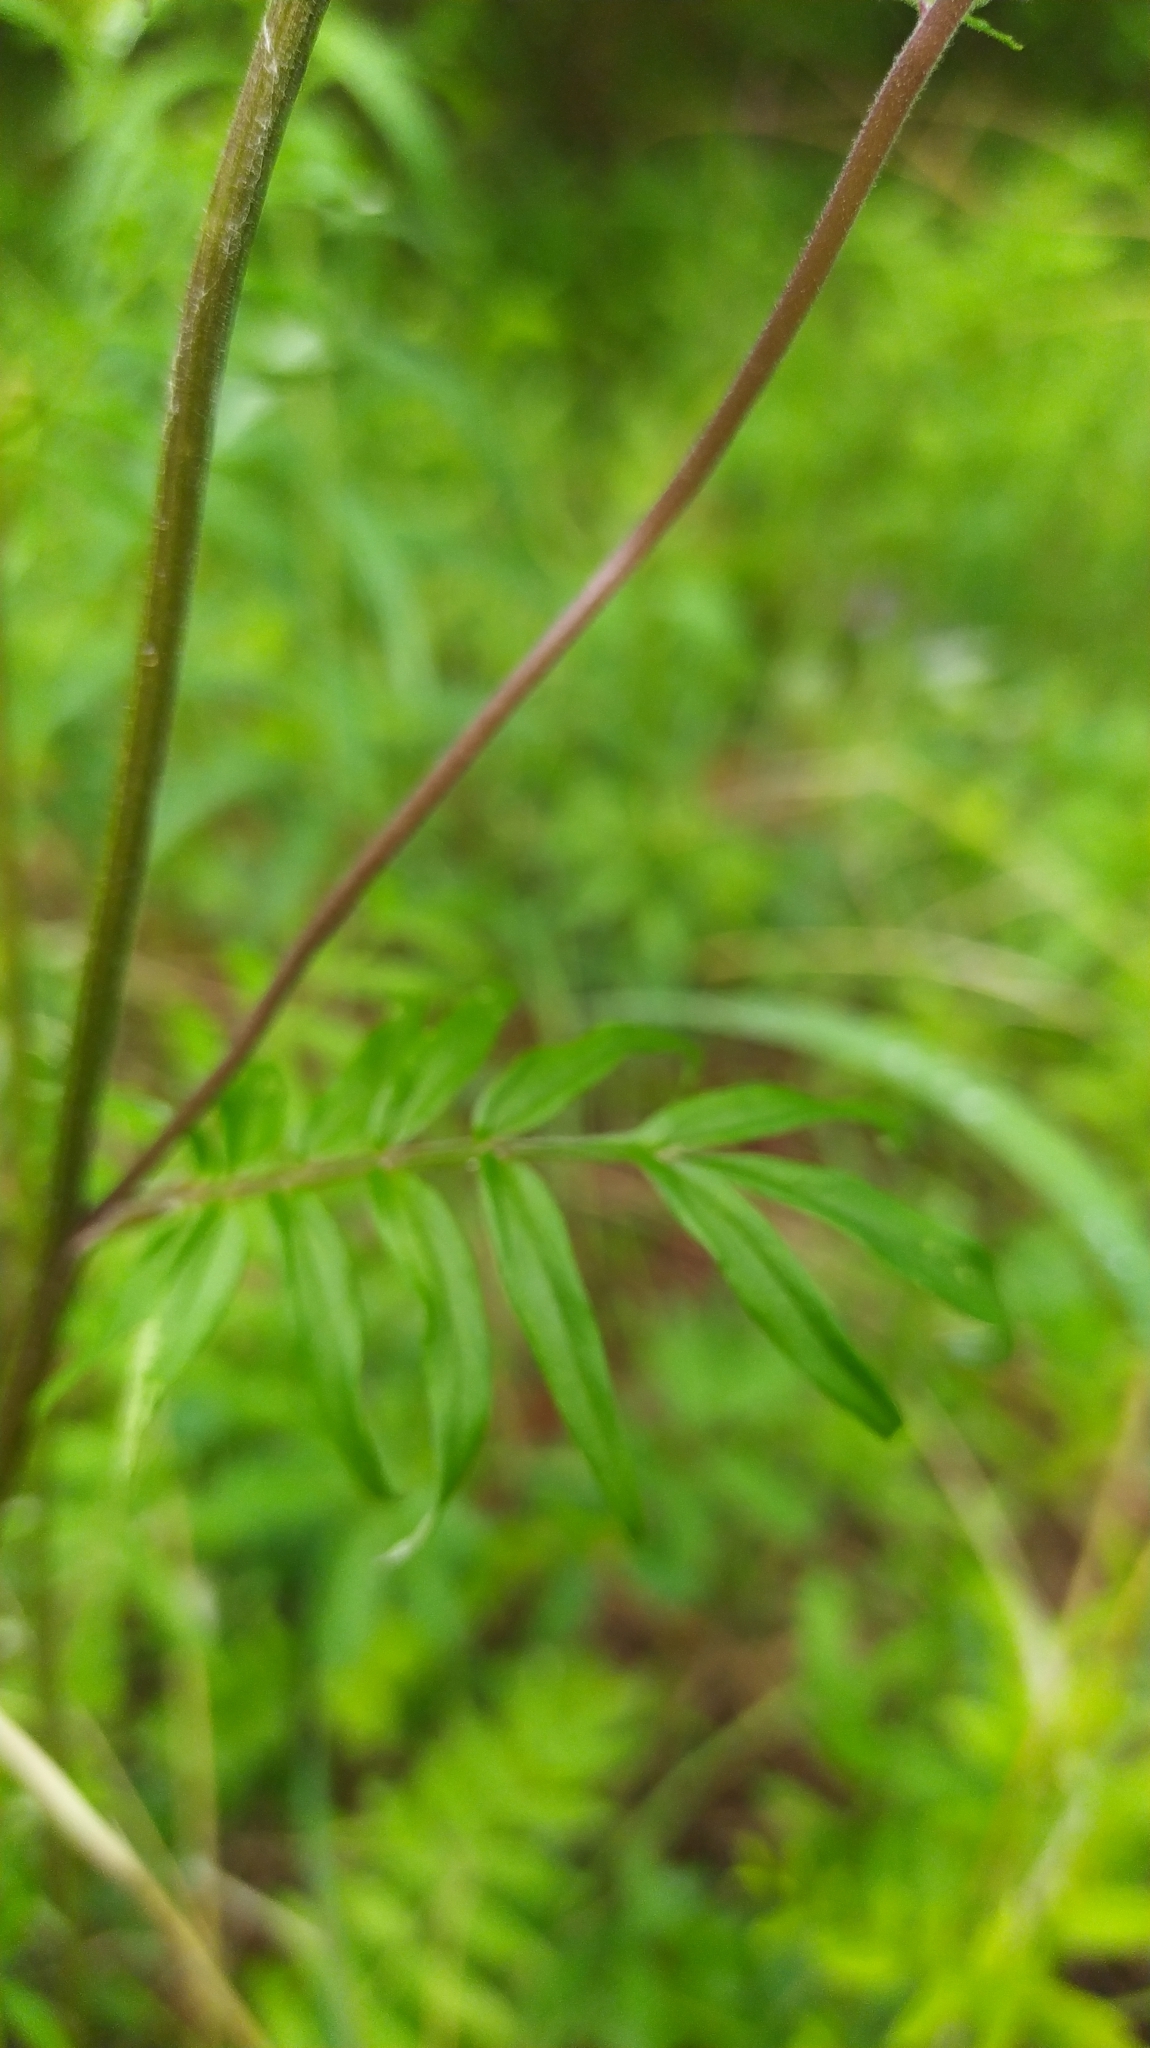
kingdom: Plantae
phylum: Tracheophyta
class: Magnoliopsida
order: Ericales
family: Polemoniaceae
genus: Polemonium
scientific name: Polemonium caeruleum
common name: Jacob's-ladder
